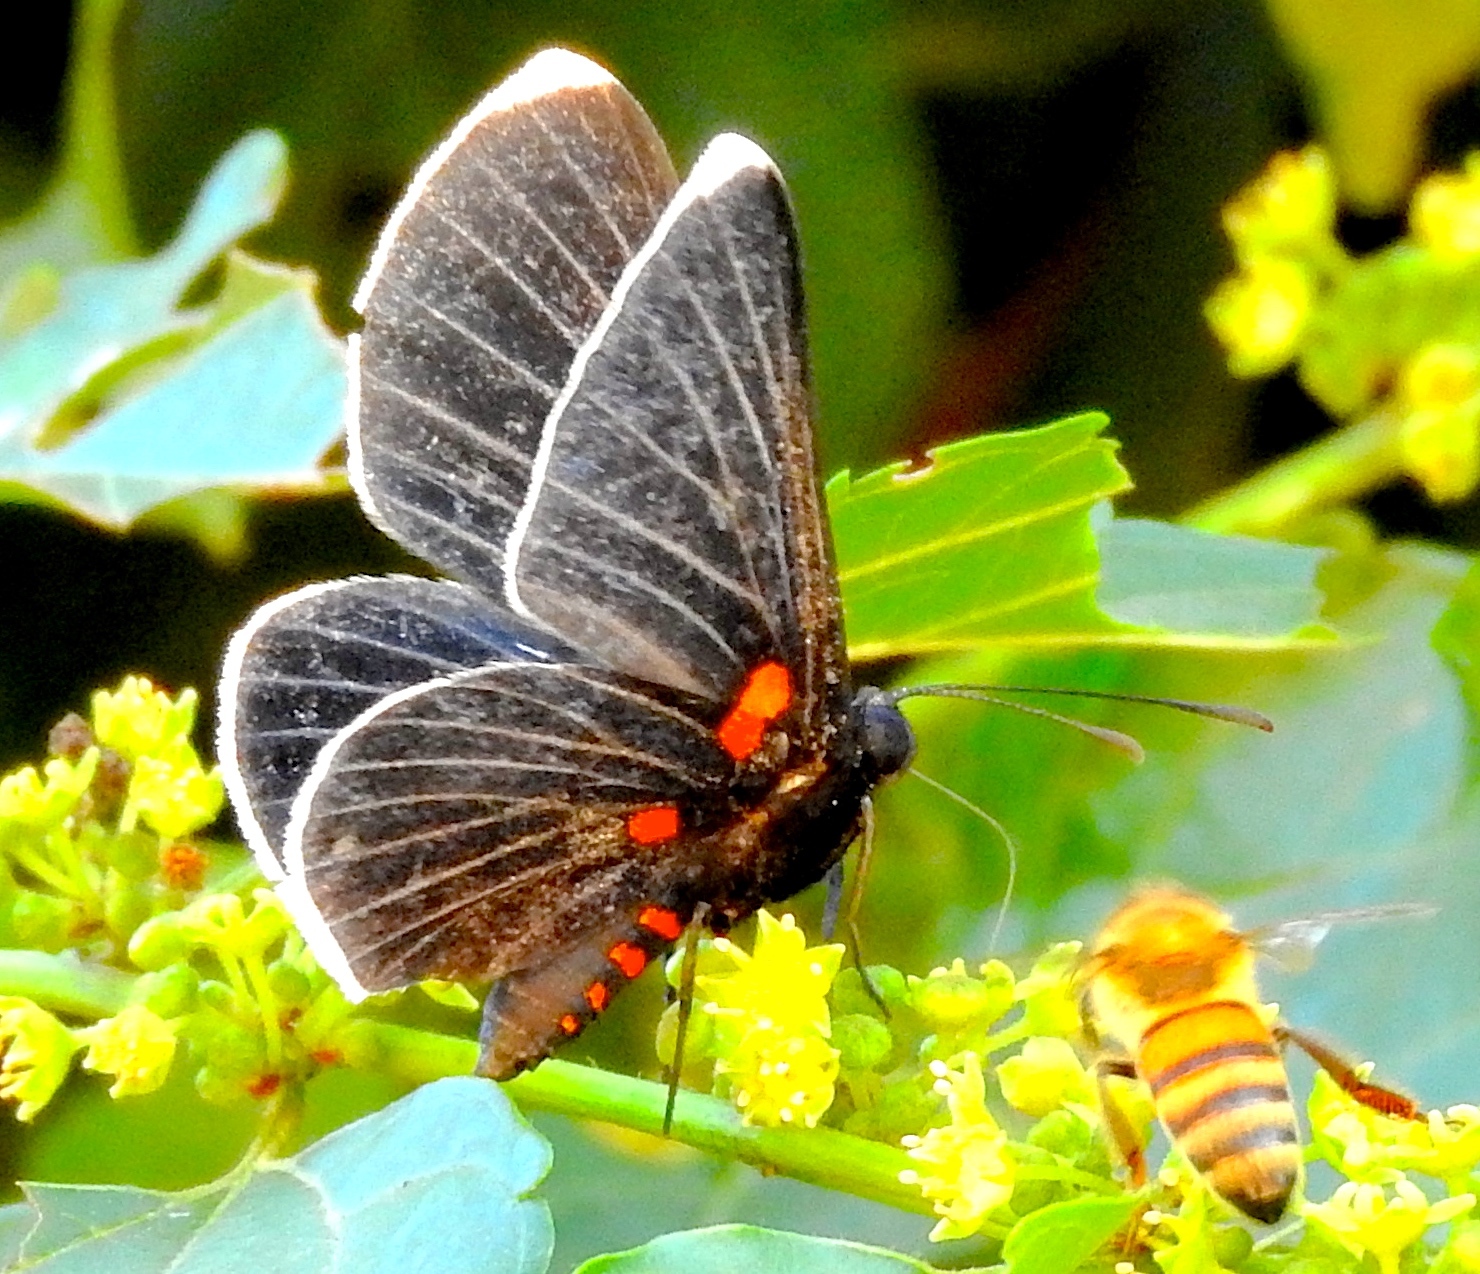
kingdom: Animalia
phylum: Arthropoda
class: Insecta
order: Lepidoptera
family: Lycaenidae
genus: Melanis
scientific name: Melanis
